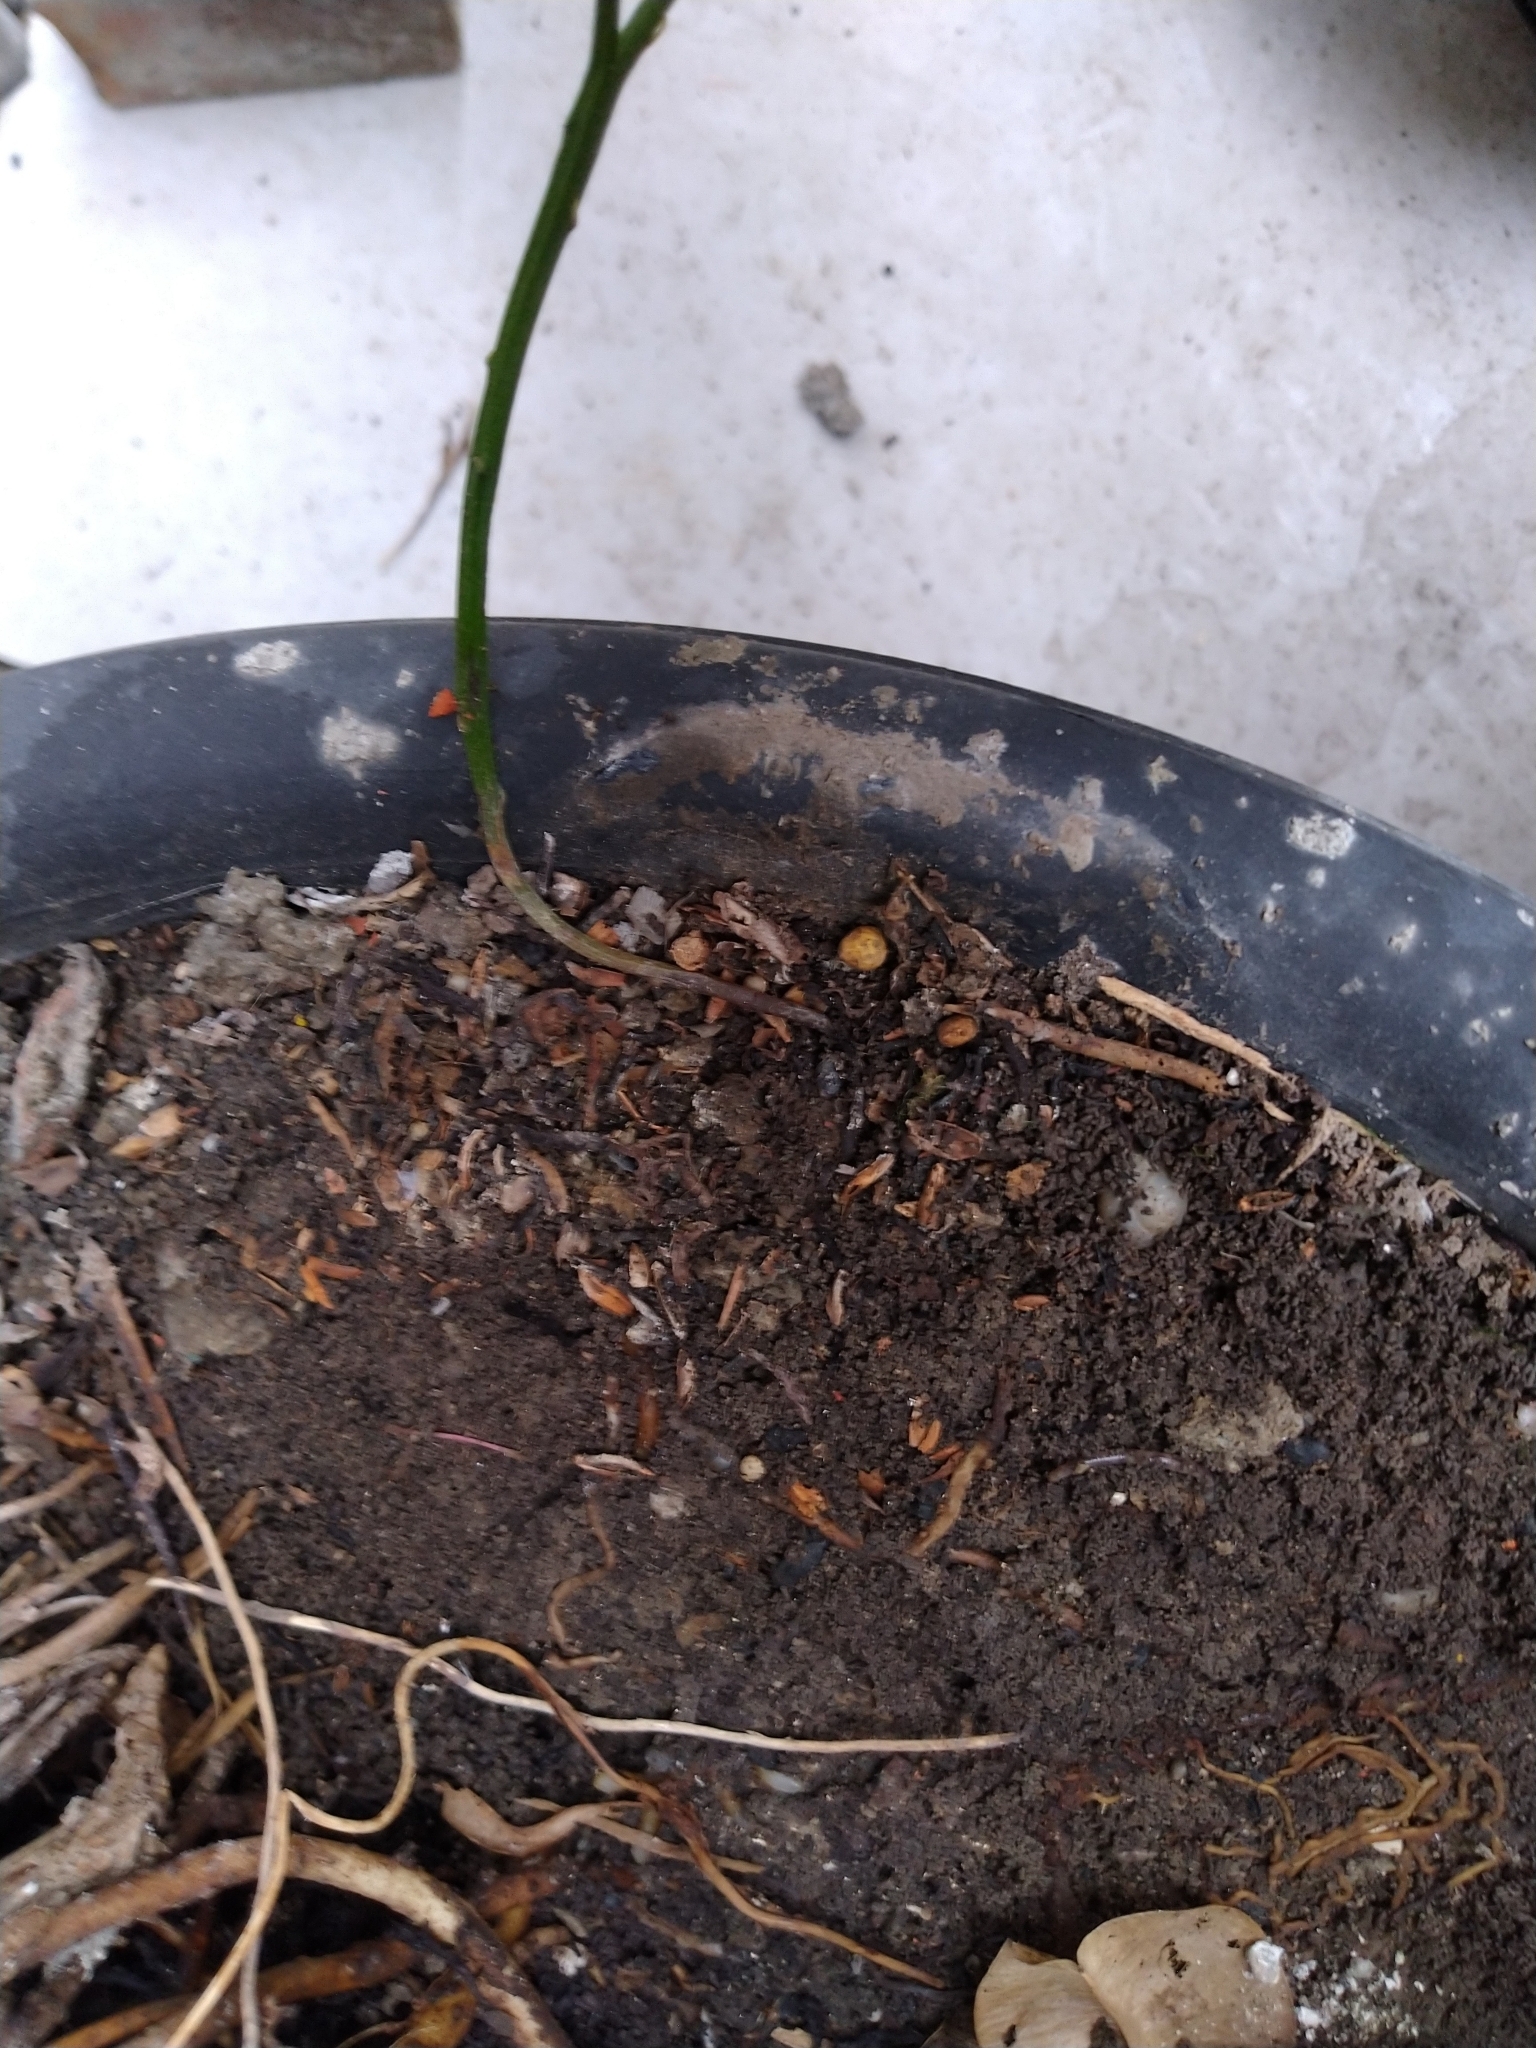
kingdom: Plantae
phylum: Tracheophyta
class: Polypodiopsida
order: Psilotales
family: Psilotaceae
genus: Psilotum
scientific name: Psilotum nudum
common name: Skeleton fork fern
